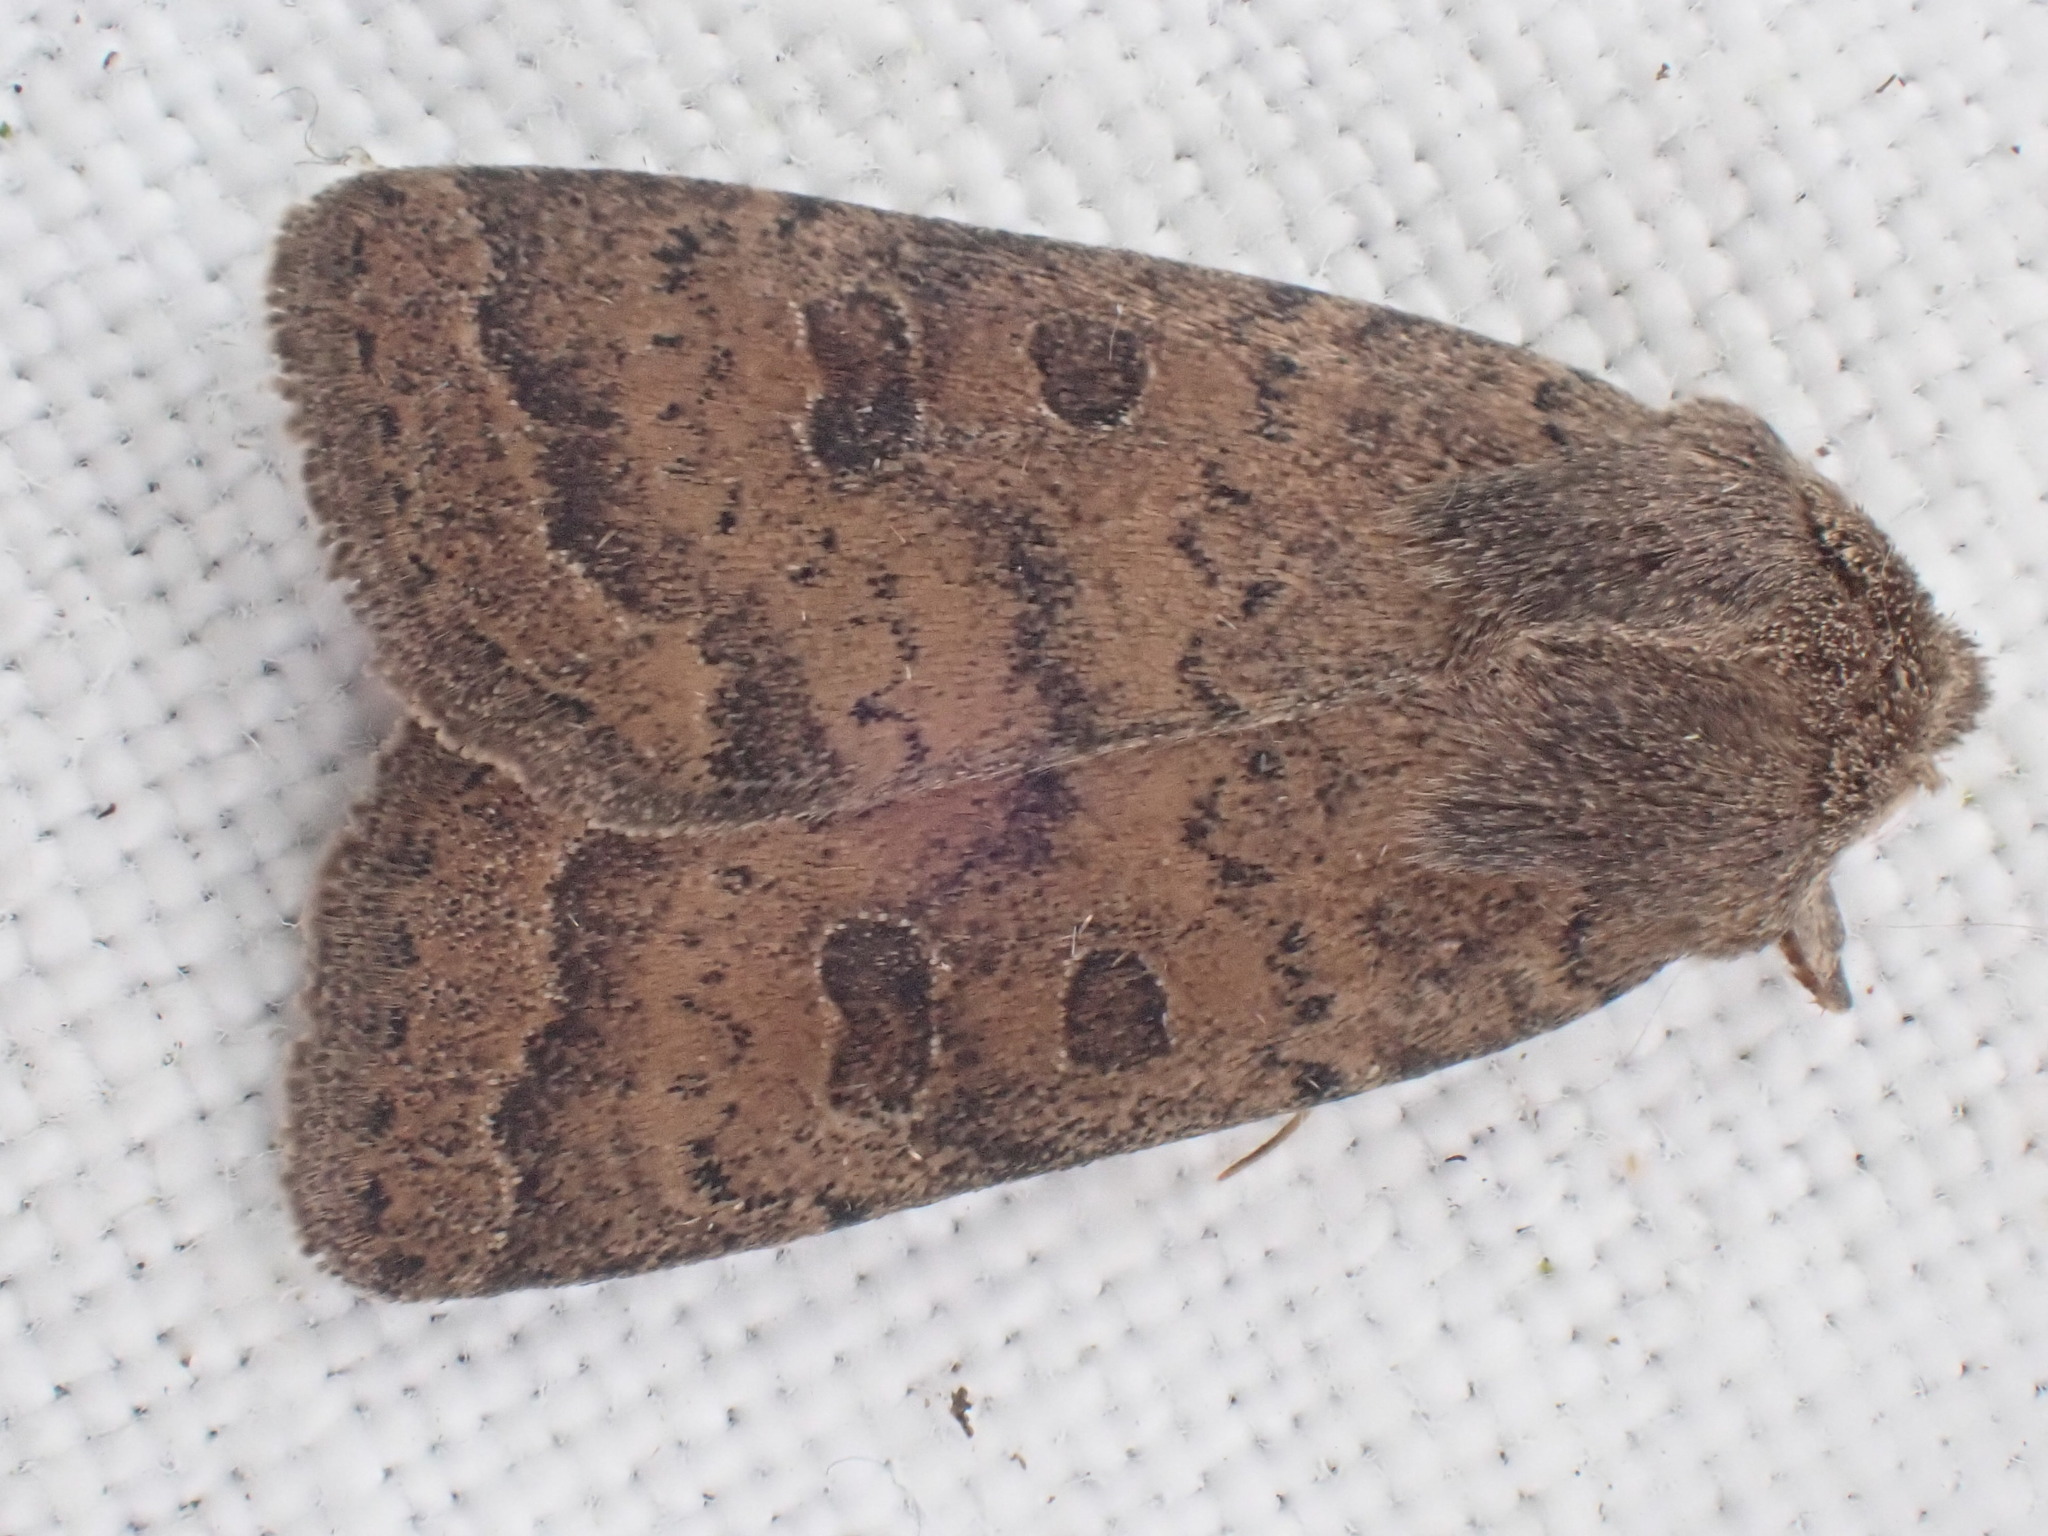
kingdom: Animalia
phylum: Arthropoda
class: Insecta
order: Lepidoptera
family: Noctuidae
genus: Hoplodrina
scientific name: Hoplodrina octogenaria
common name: Uncertain
